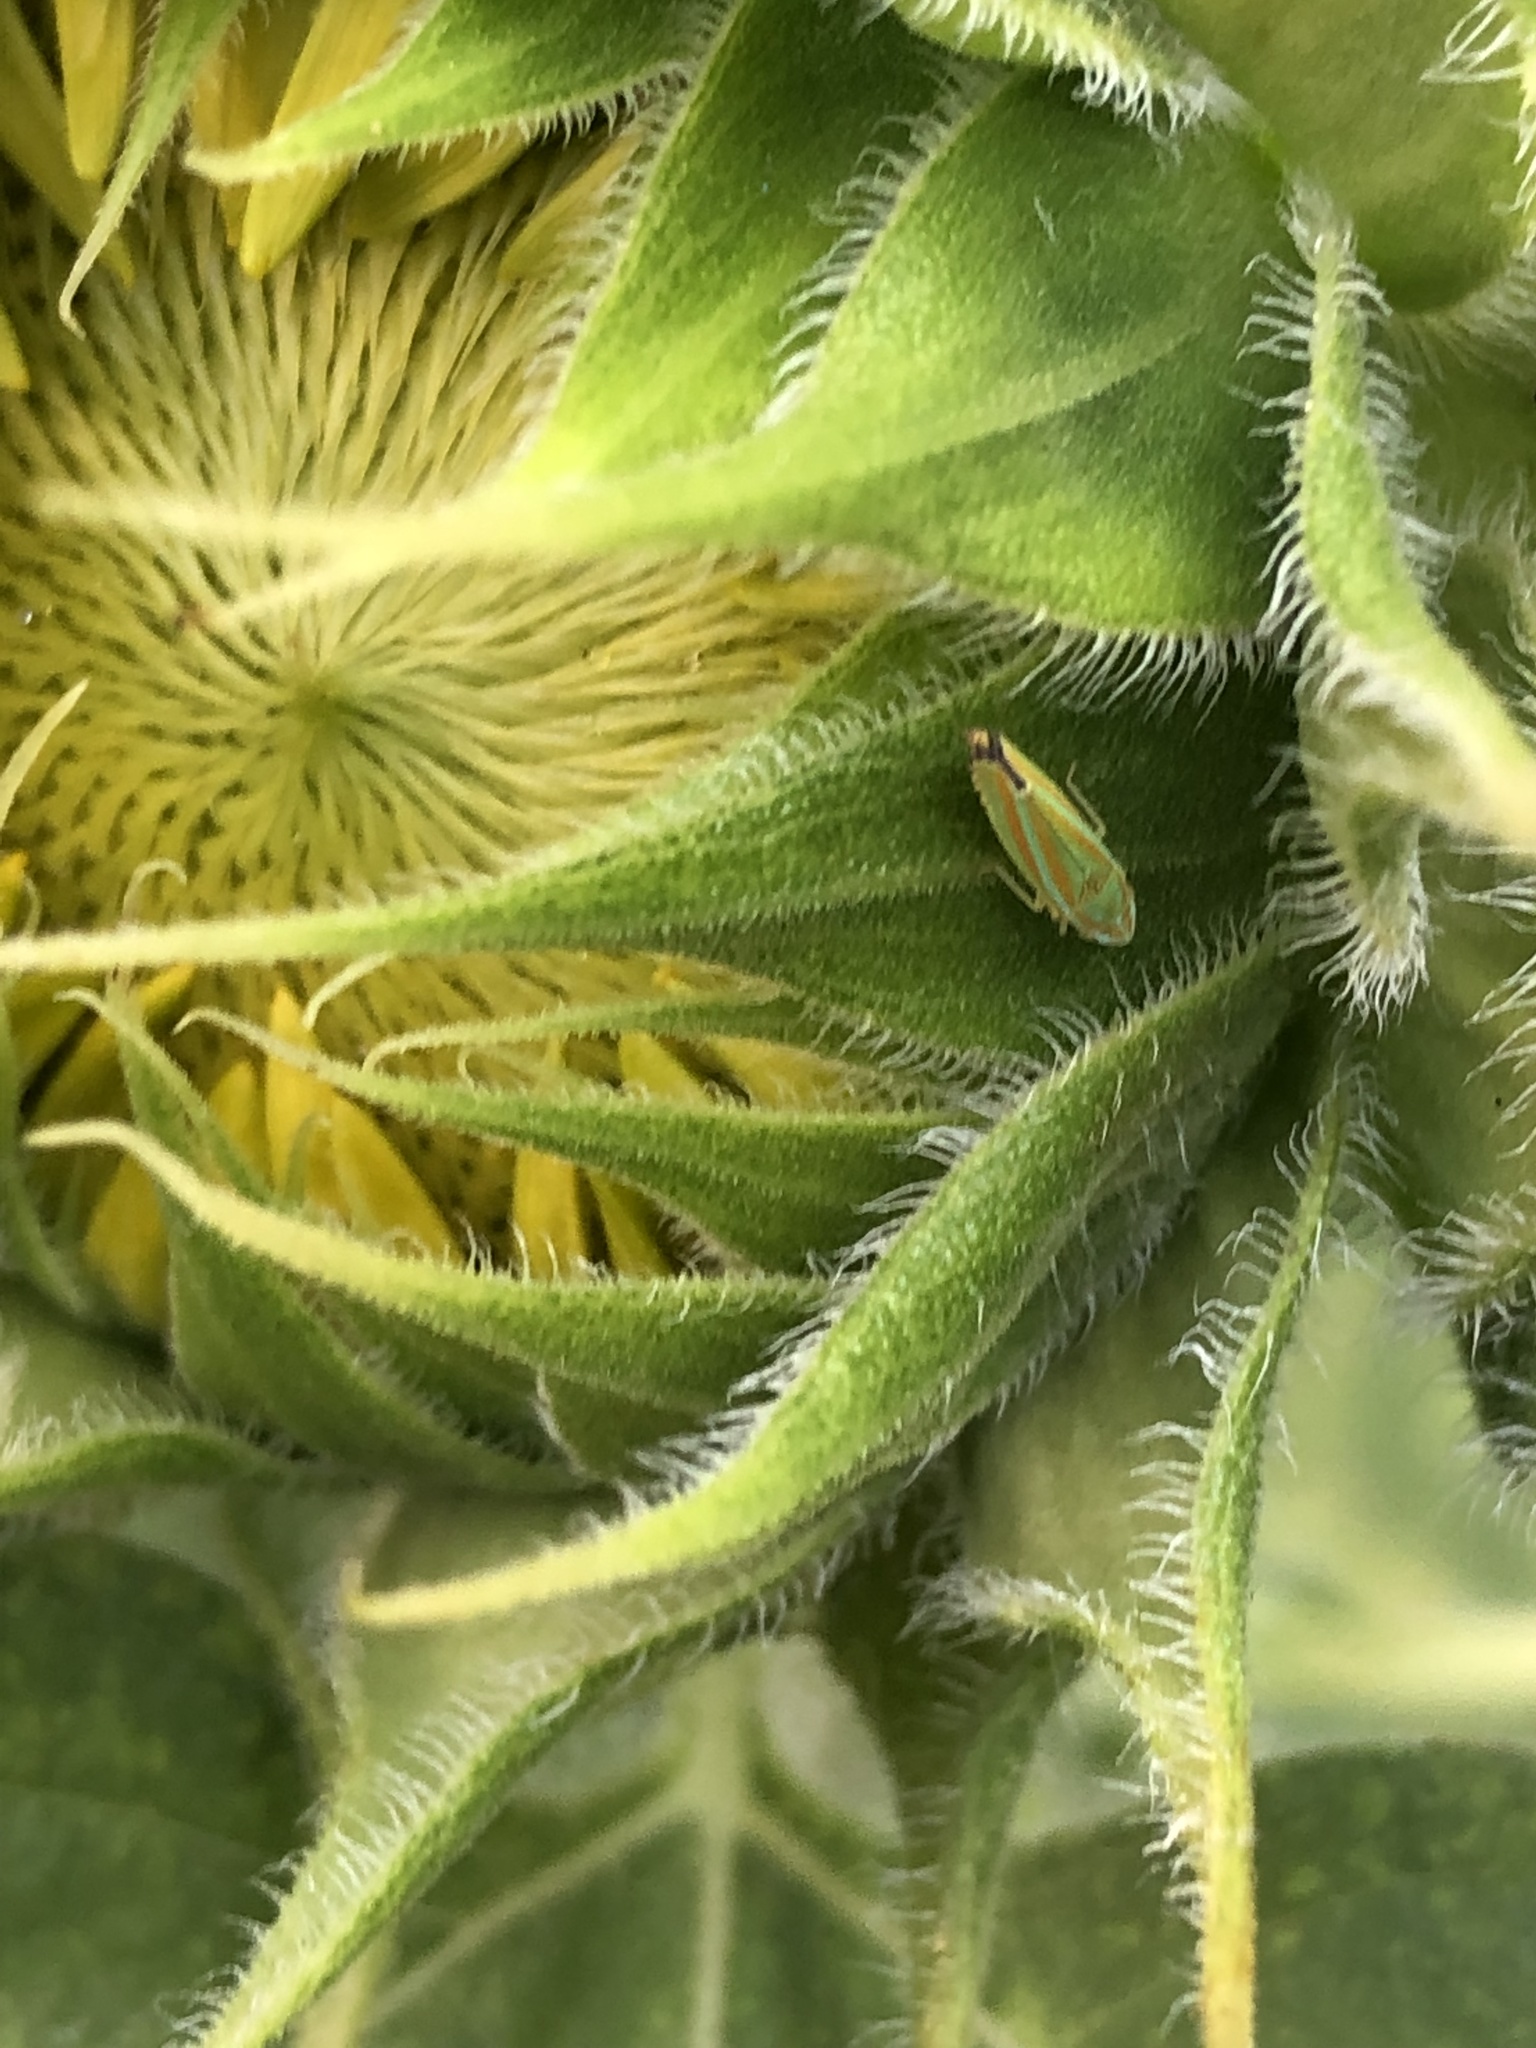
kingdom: Animalia
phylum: Arthropoda
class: Insecta
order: Hemiptera
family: Cicadellidae
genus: Graphocephala
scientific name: Graphocephala versuta
